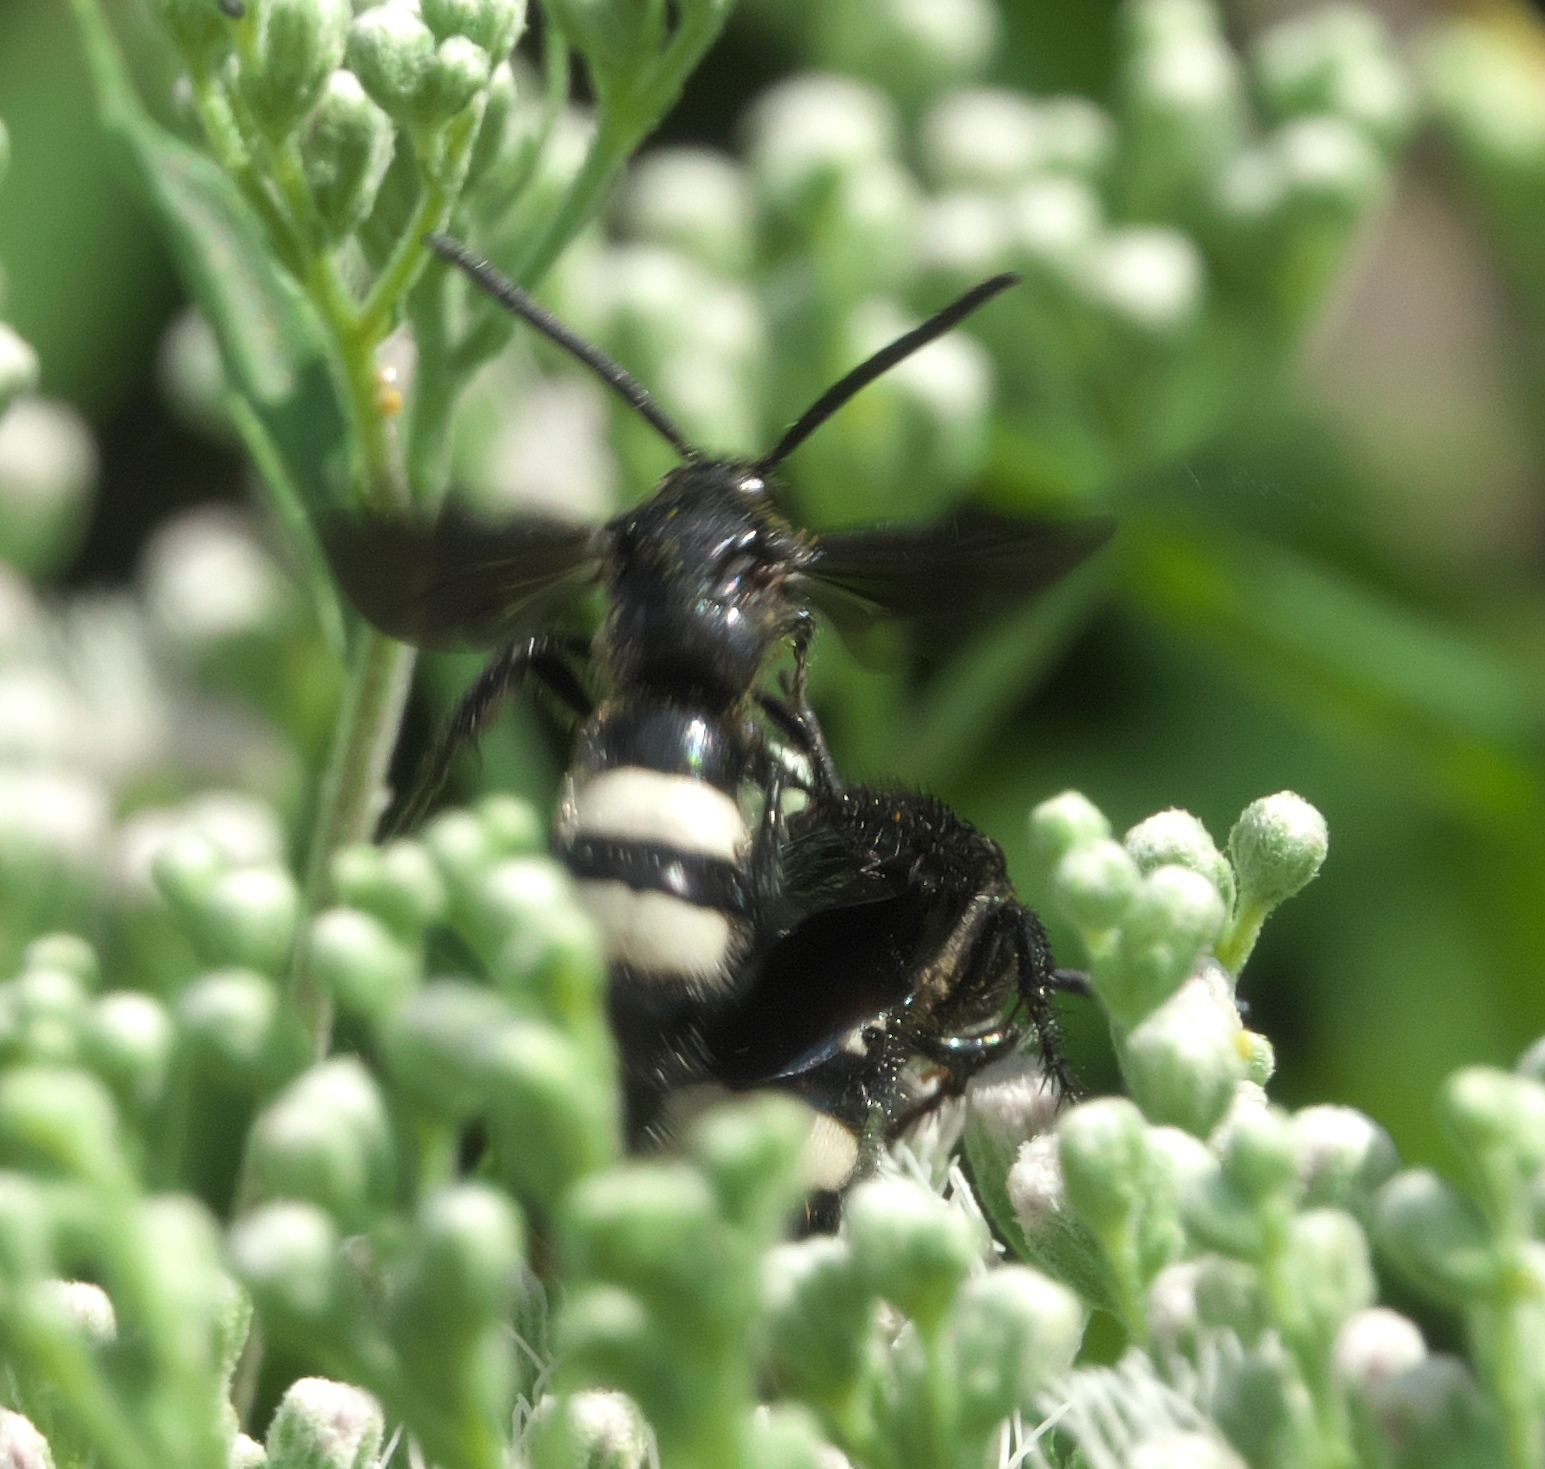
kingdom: Animalia
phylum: Arthropoda
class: Insecta
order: Hymenoptera
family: Scoliidae
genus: Scolia
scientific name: Scolia bicincta
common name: Double-banded scoliid wasp
